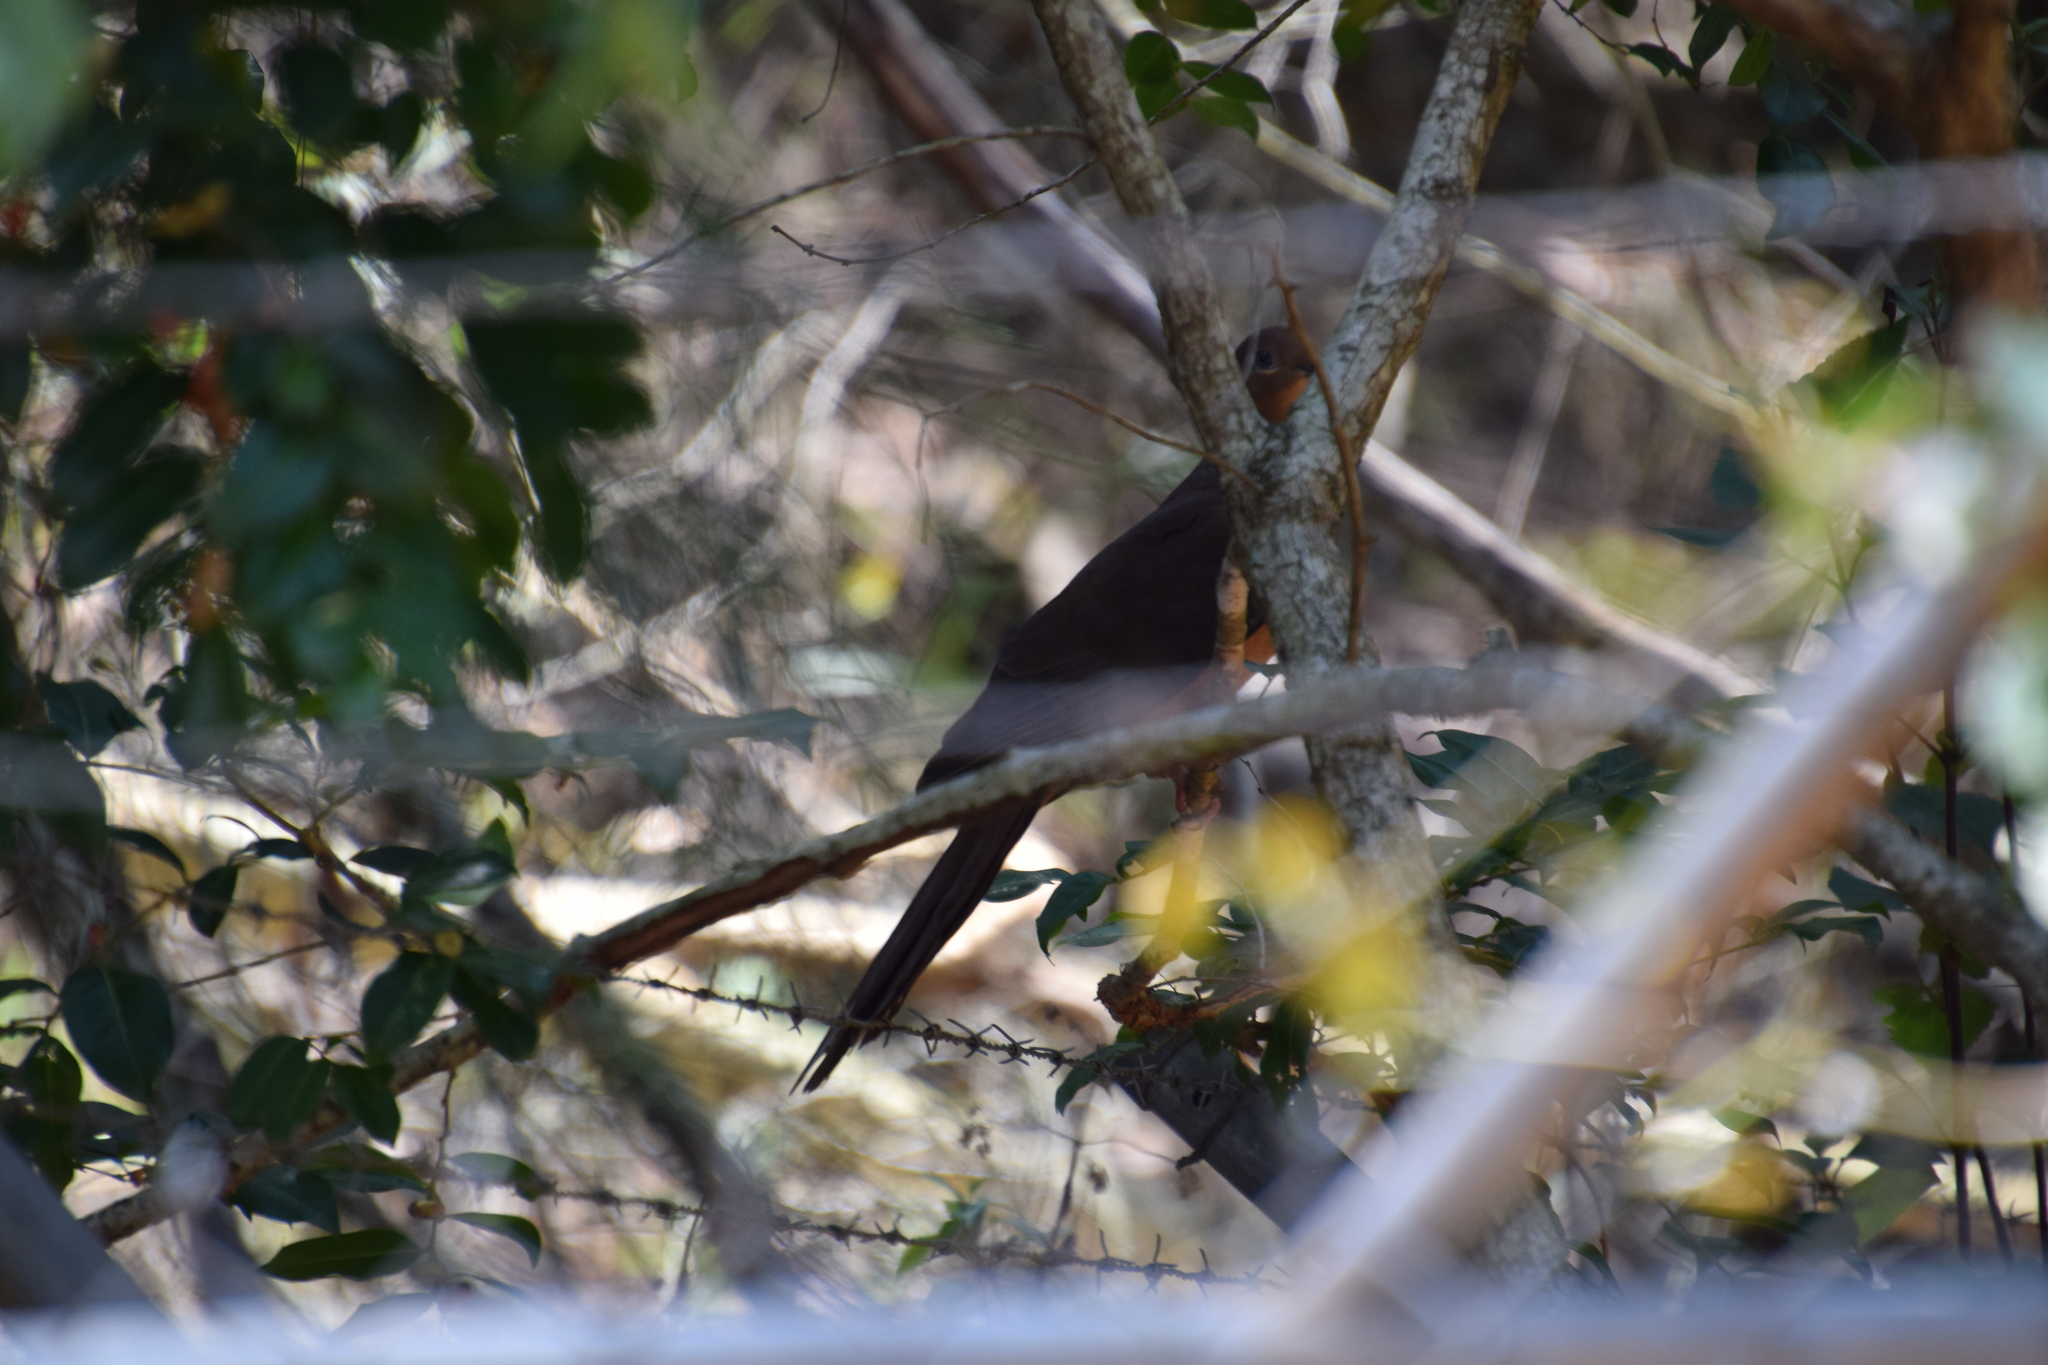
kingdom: Animalia
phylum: Chordata
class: Aves
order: Columbiformes
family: Columbidae
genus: Macropygia
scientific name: Macropygia phasianella
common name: Brown cuckoo-dove
